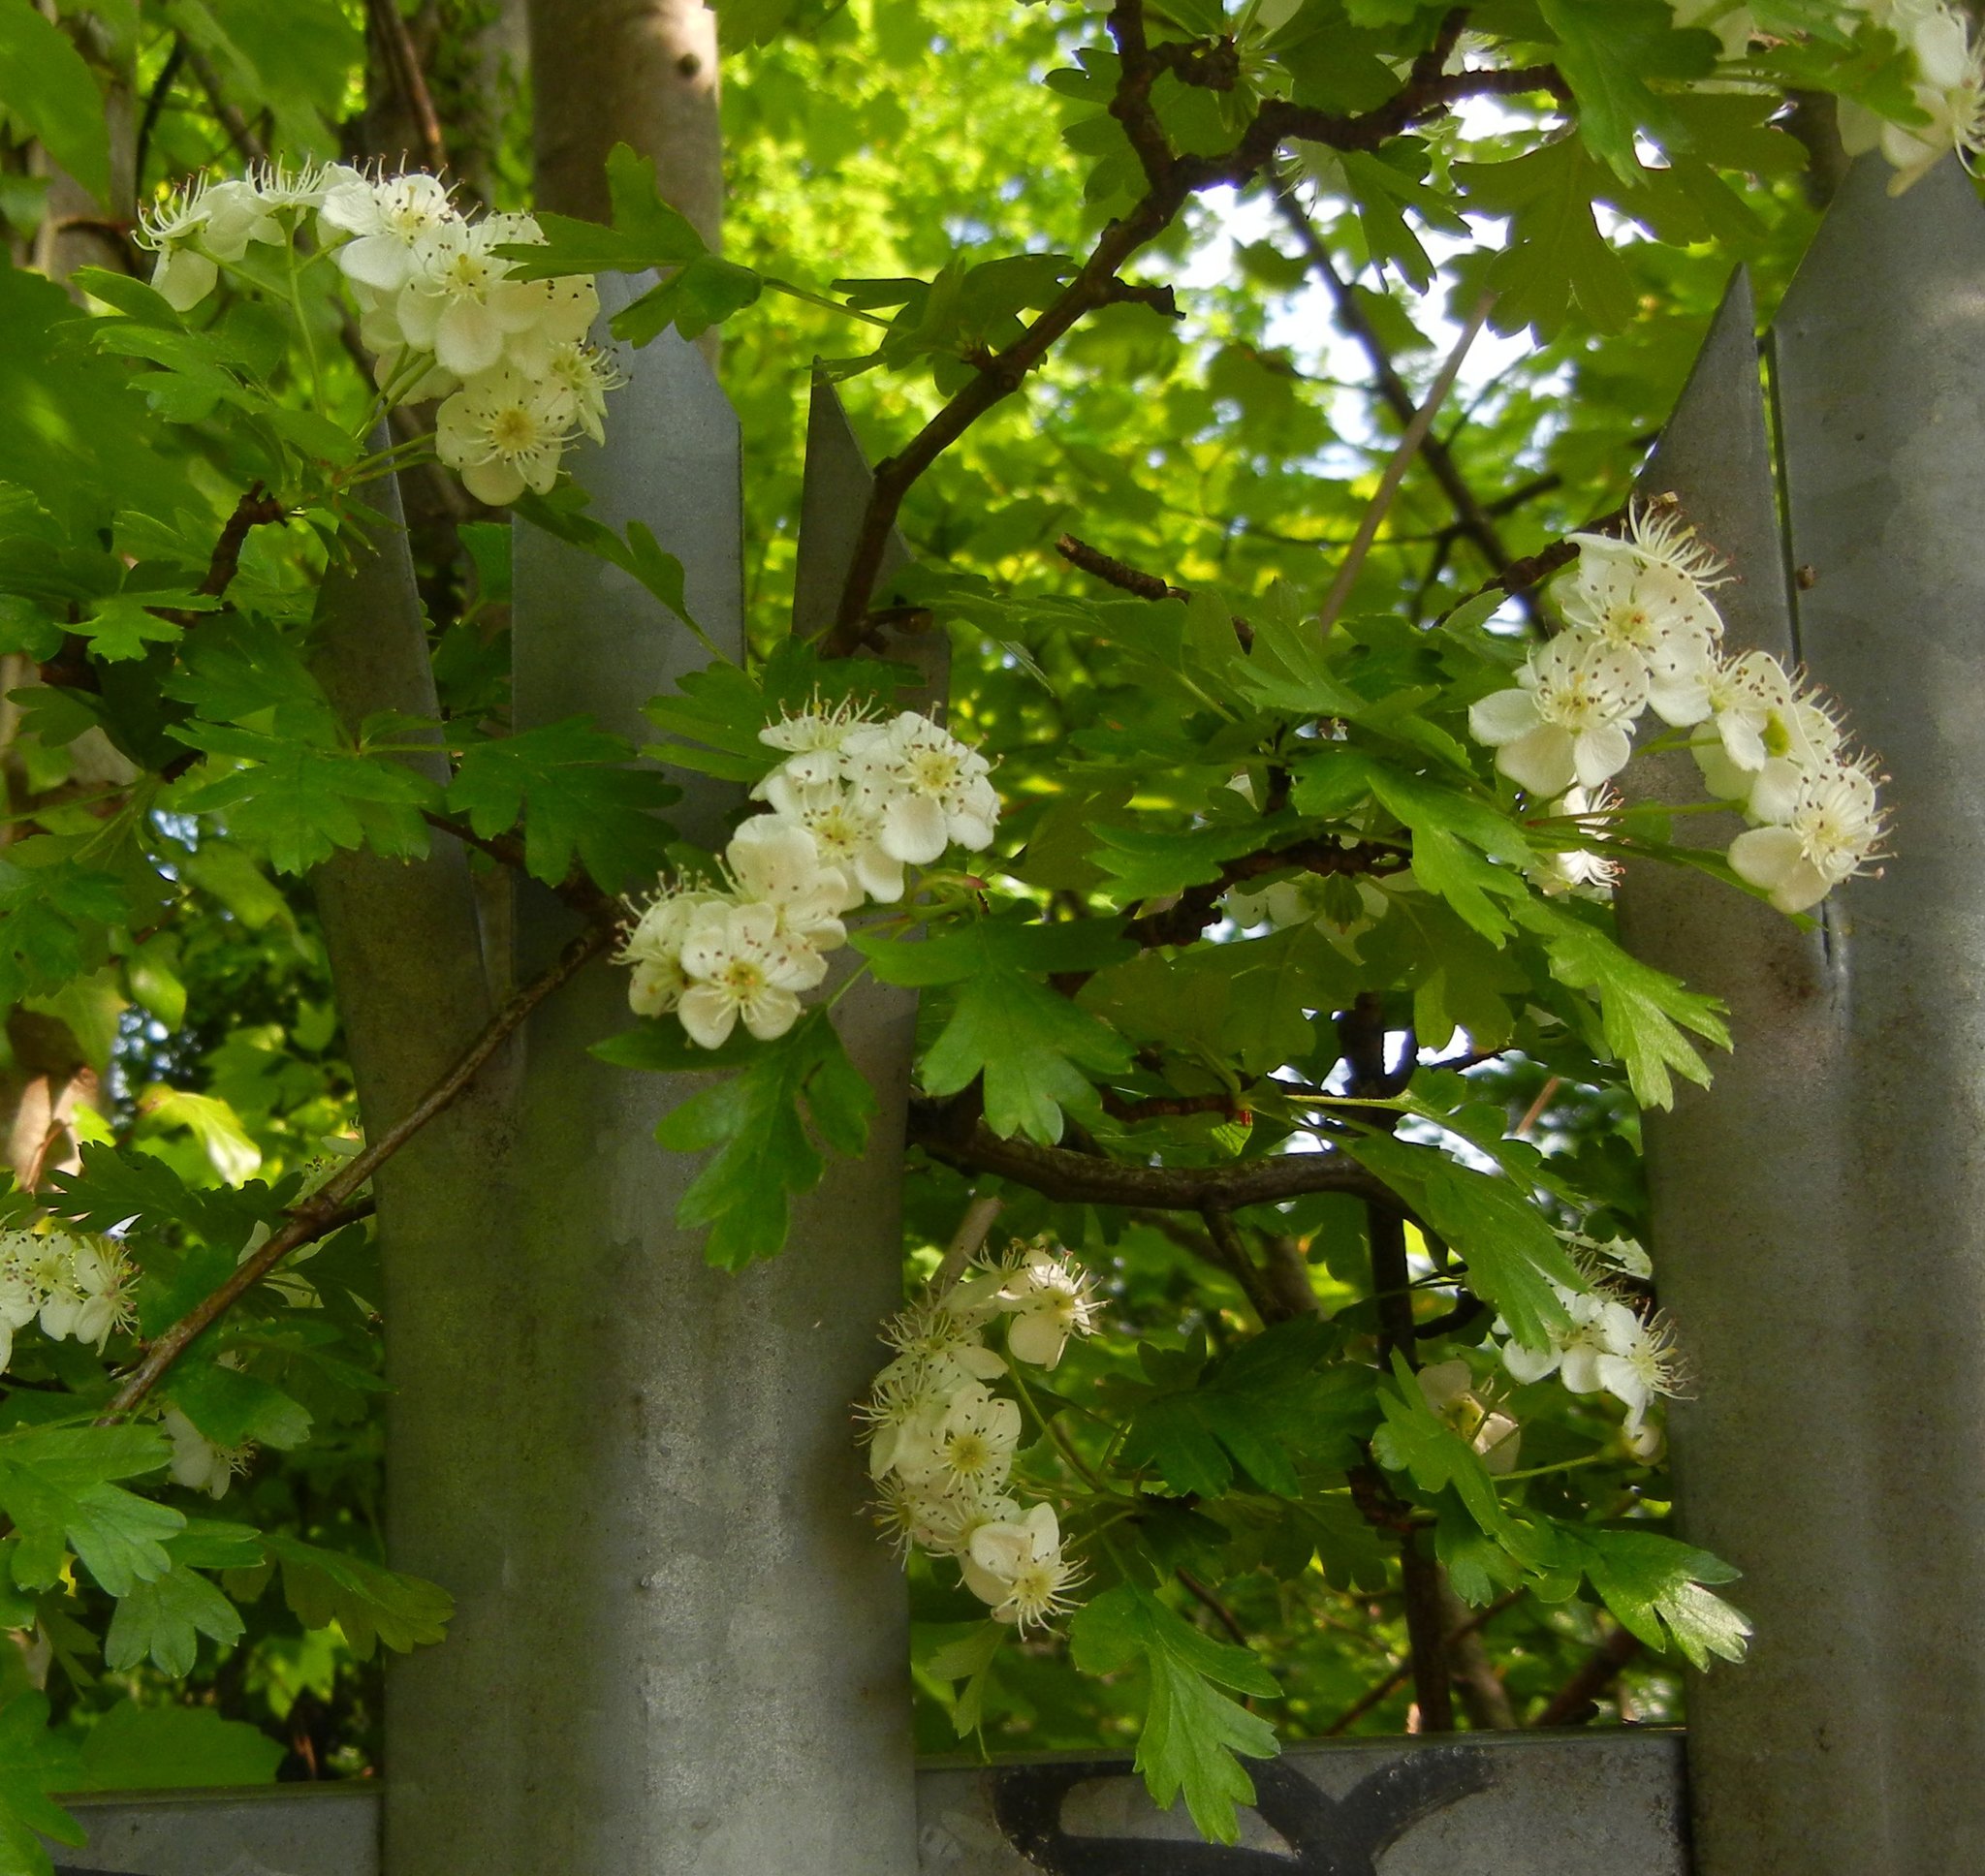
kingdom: Plantae
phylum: Tracheophyta
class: Magnoliopsida
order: Rosales
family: Rosaceae
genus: Crataegus
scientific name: Crataegus monogyna
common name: Hawthorn
